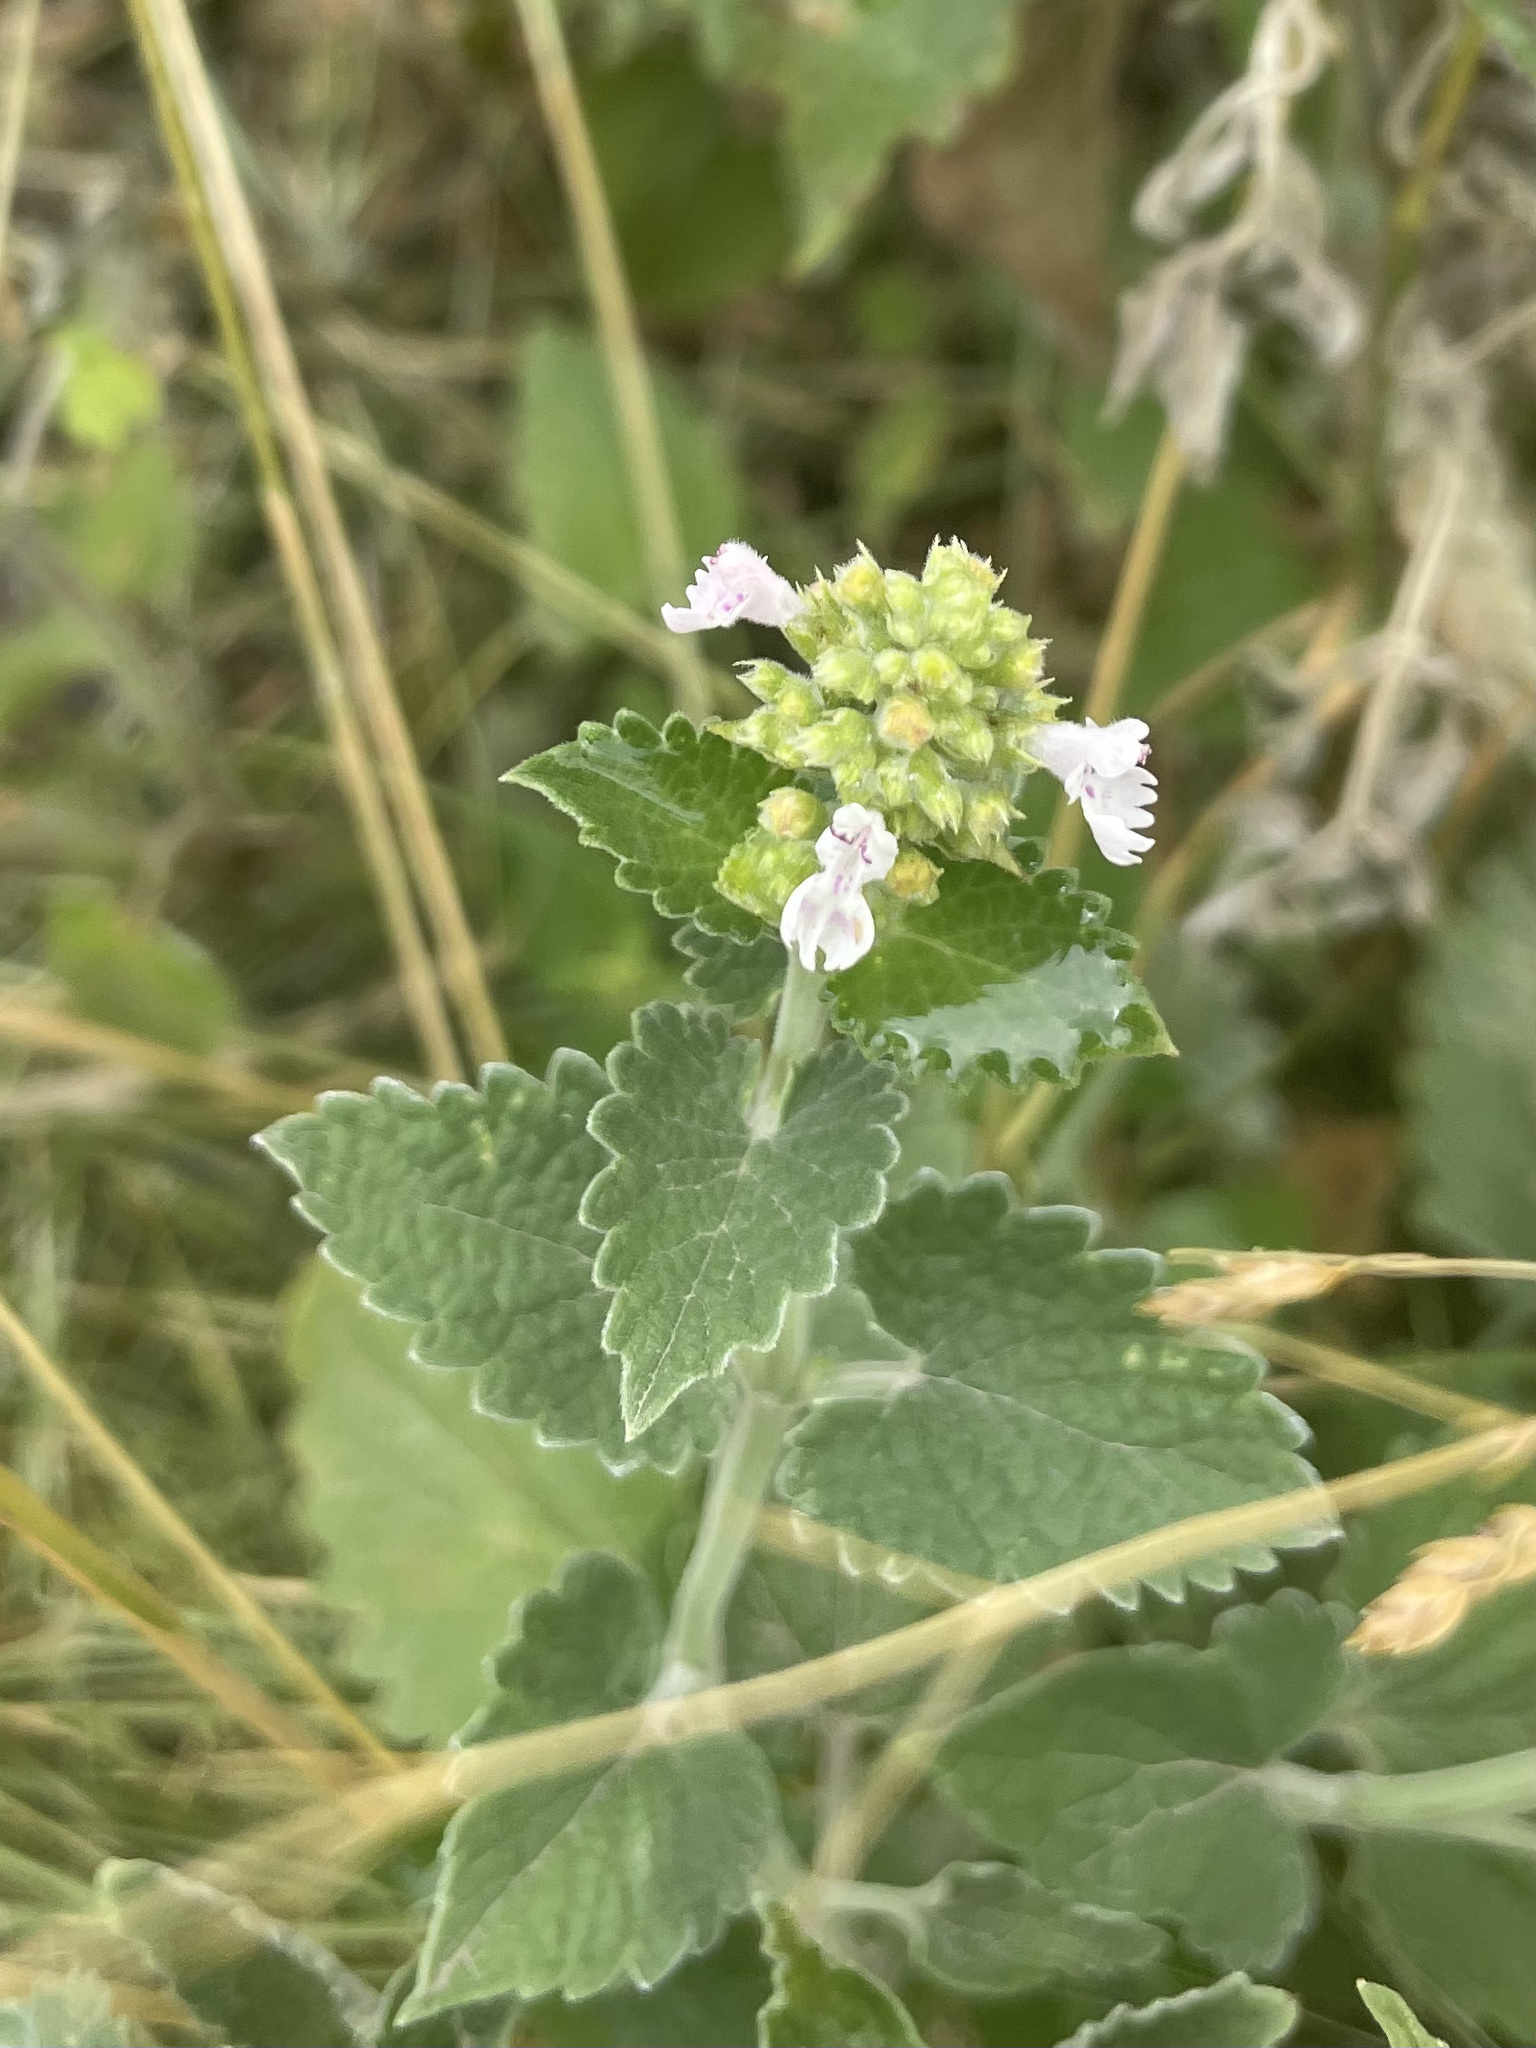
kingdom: Plantae
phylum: Tracheophyta
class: Magnoliopsida
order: Lamiales
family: Lamiaceae
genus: Nepeta
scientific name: Nepeta cataria
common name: Catnip
